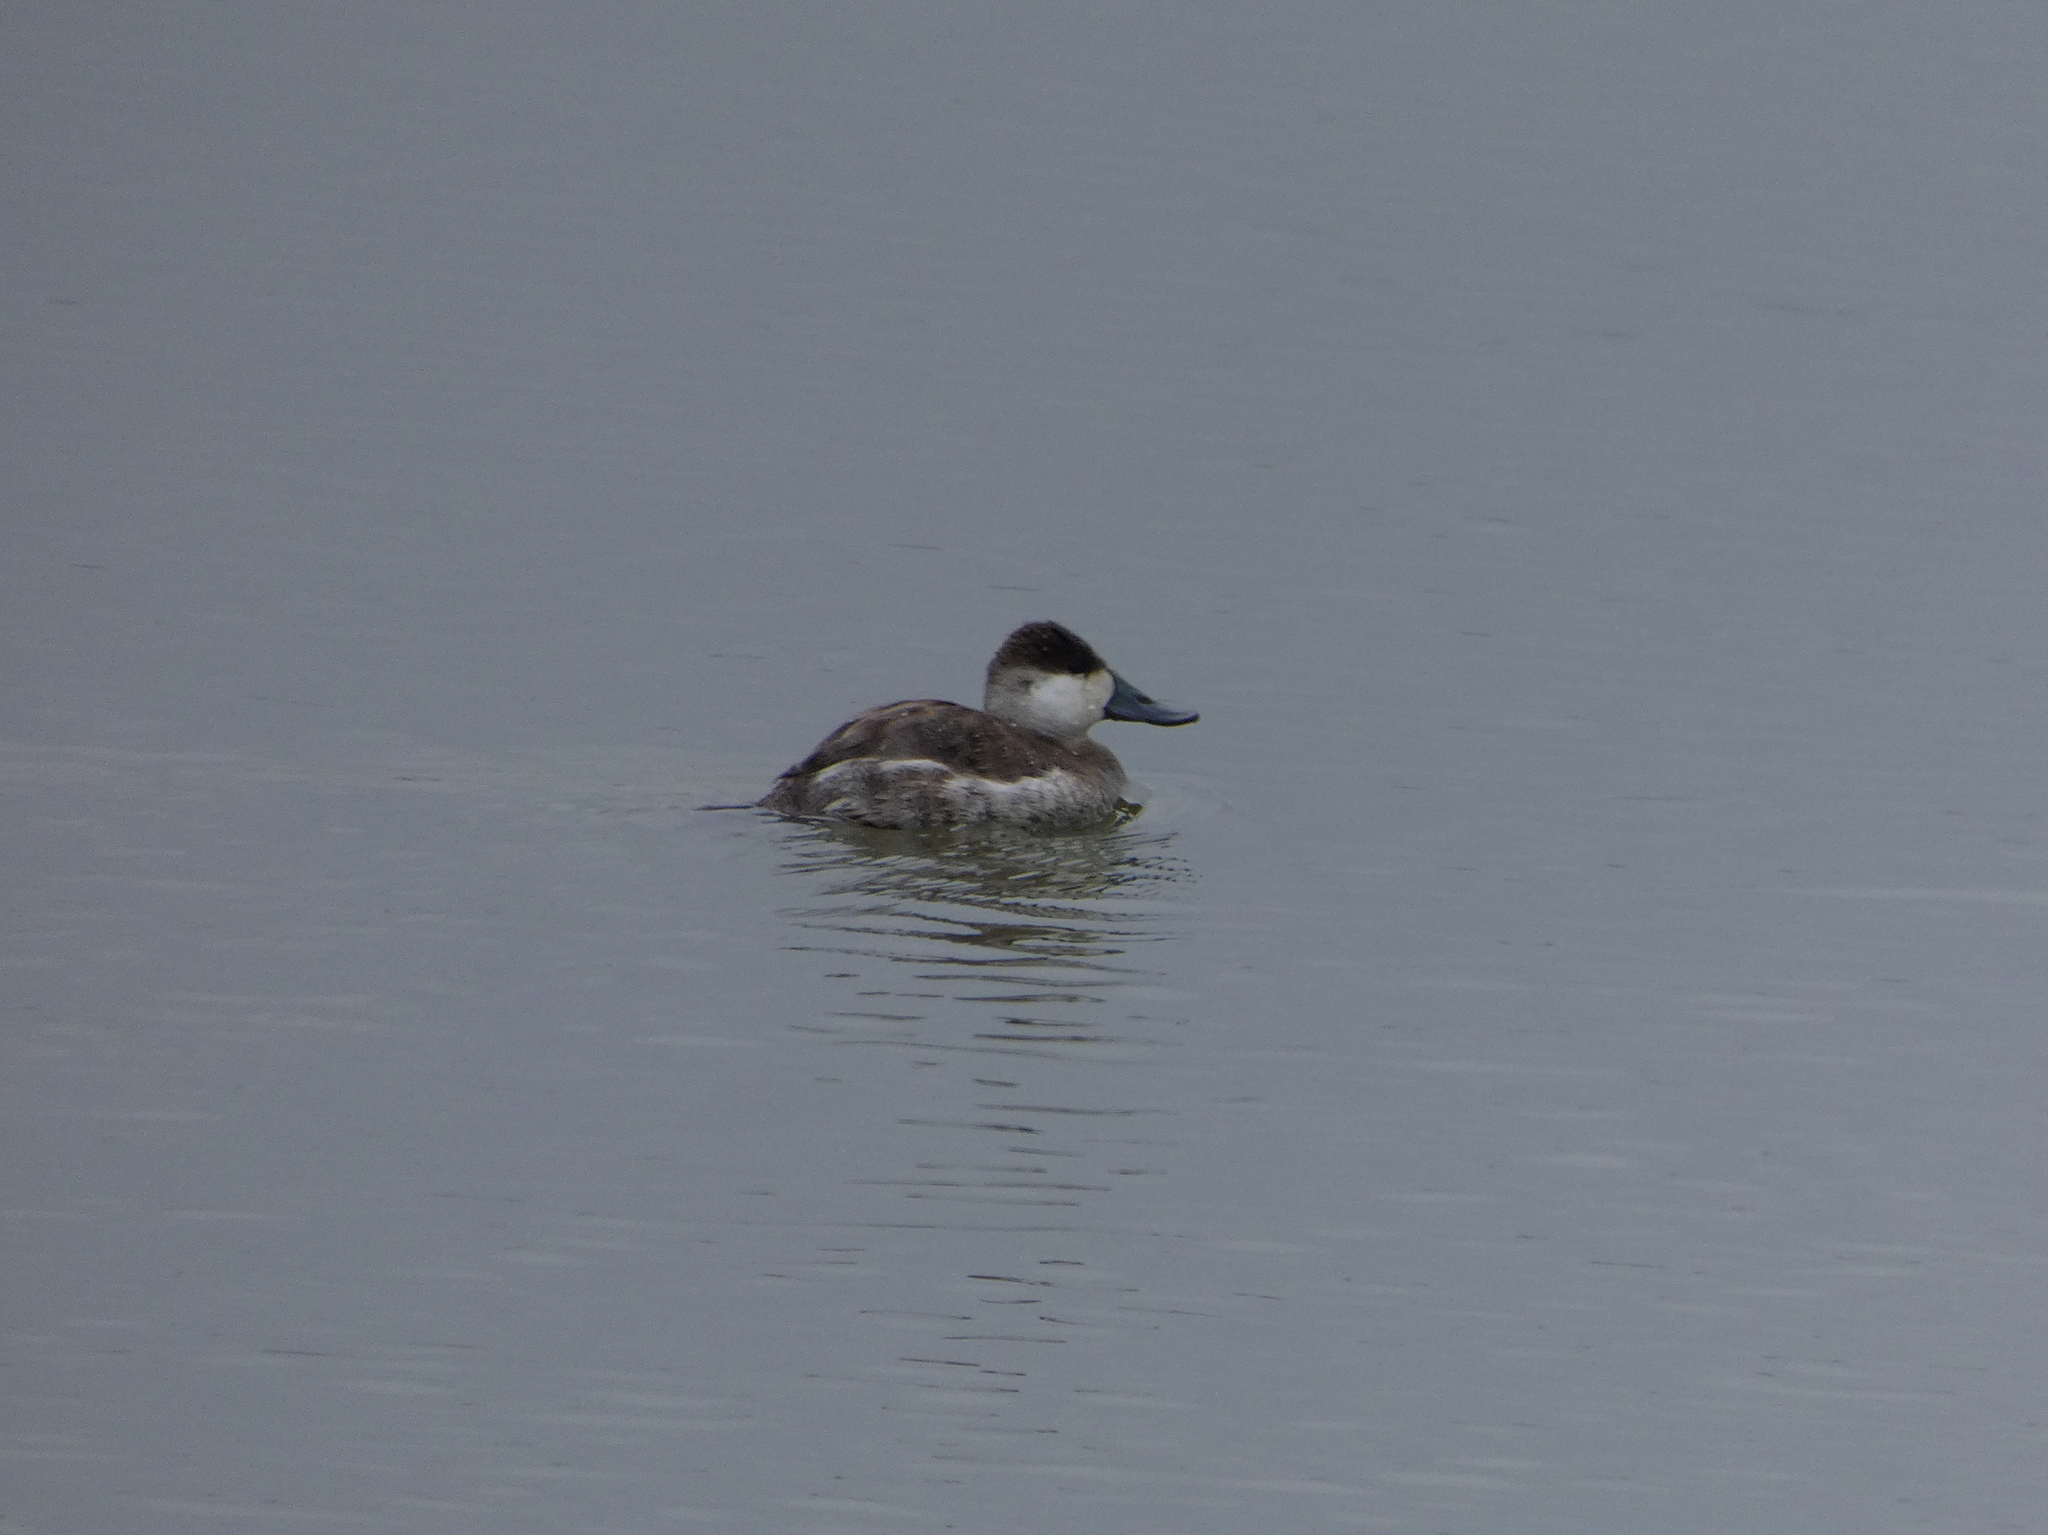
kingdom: Animalia
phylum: Chordata
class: Aves
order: Anseriformes
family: Anatidae
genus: Oxyura
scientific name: Oxyura jamaicensis
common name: Ruddy duck
